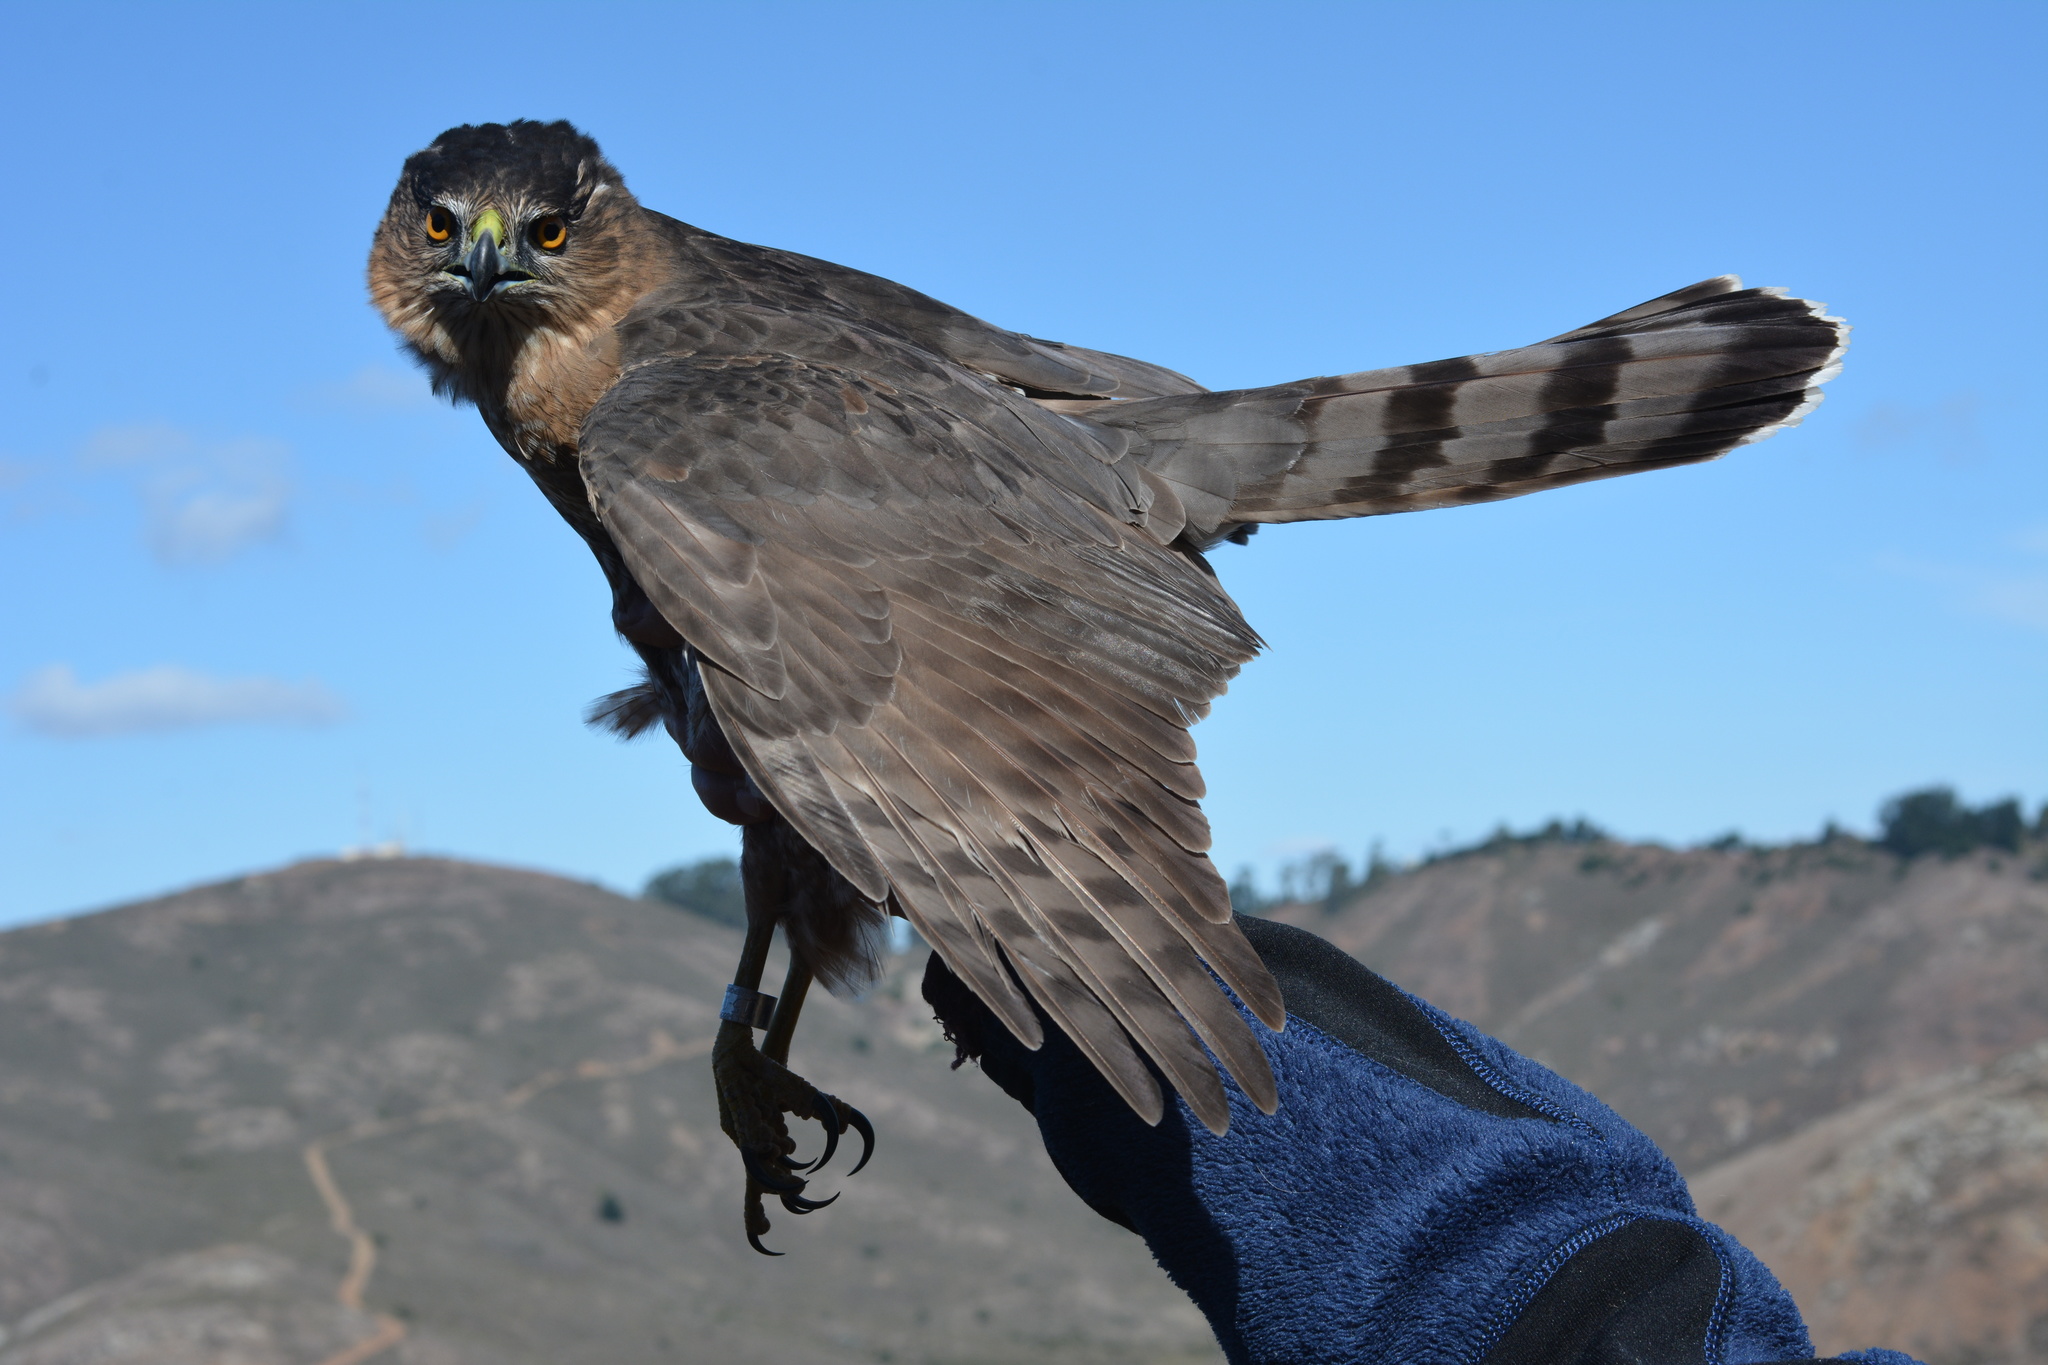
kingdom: Animalia
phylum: Chordata
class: Aves
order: Accipitriformes
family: Accipitridae
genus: Accipiter
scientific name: Accipiter cooperii
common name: Cooper's hawk
